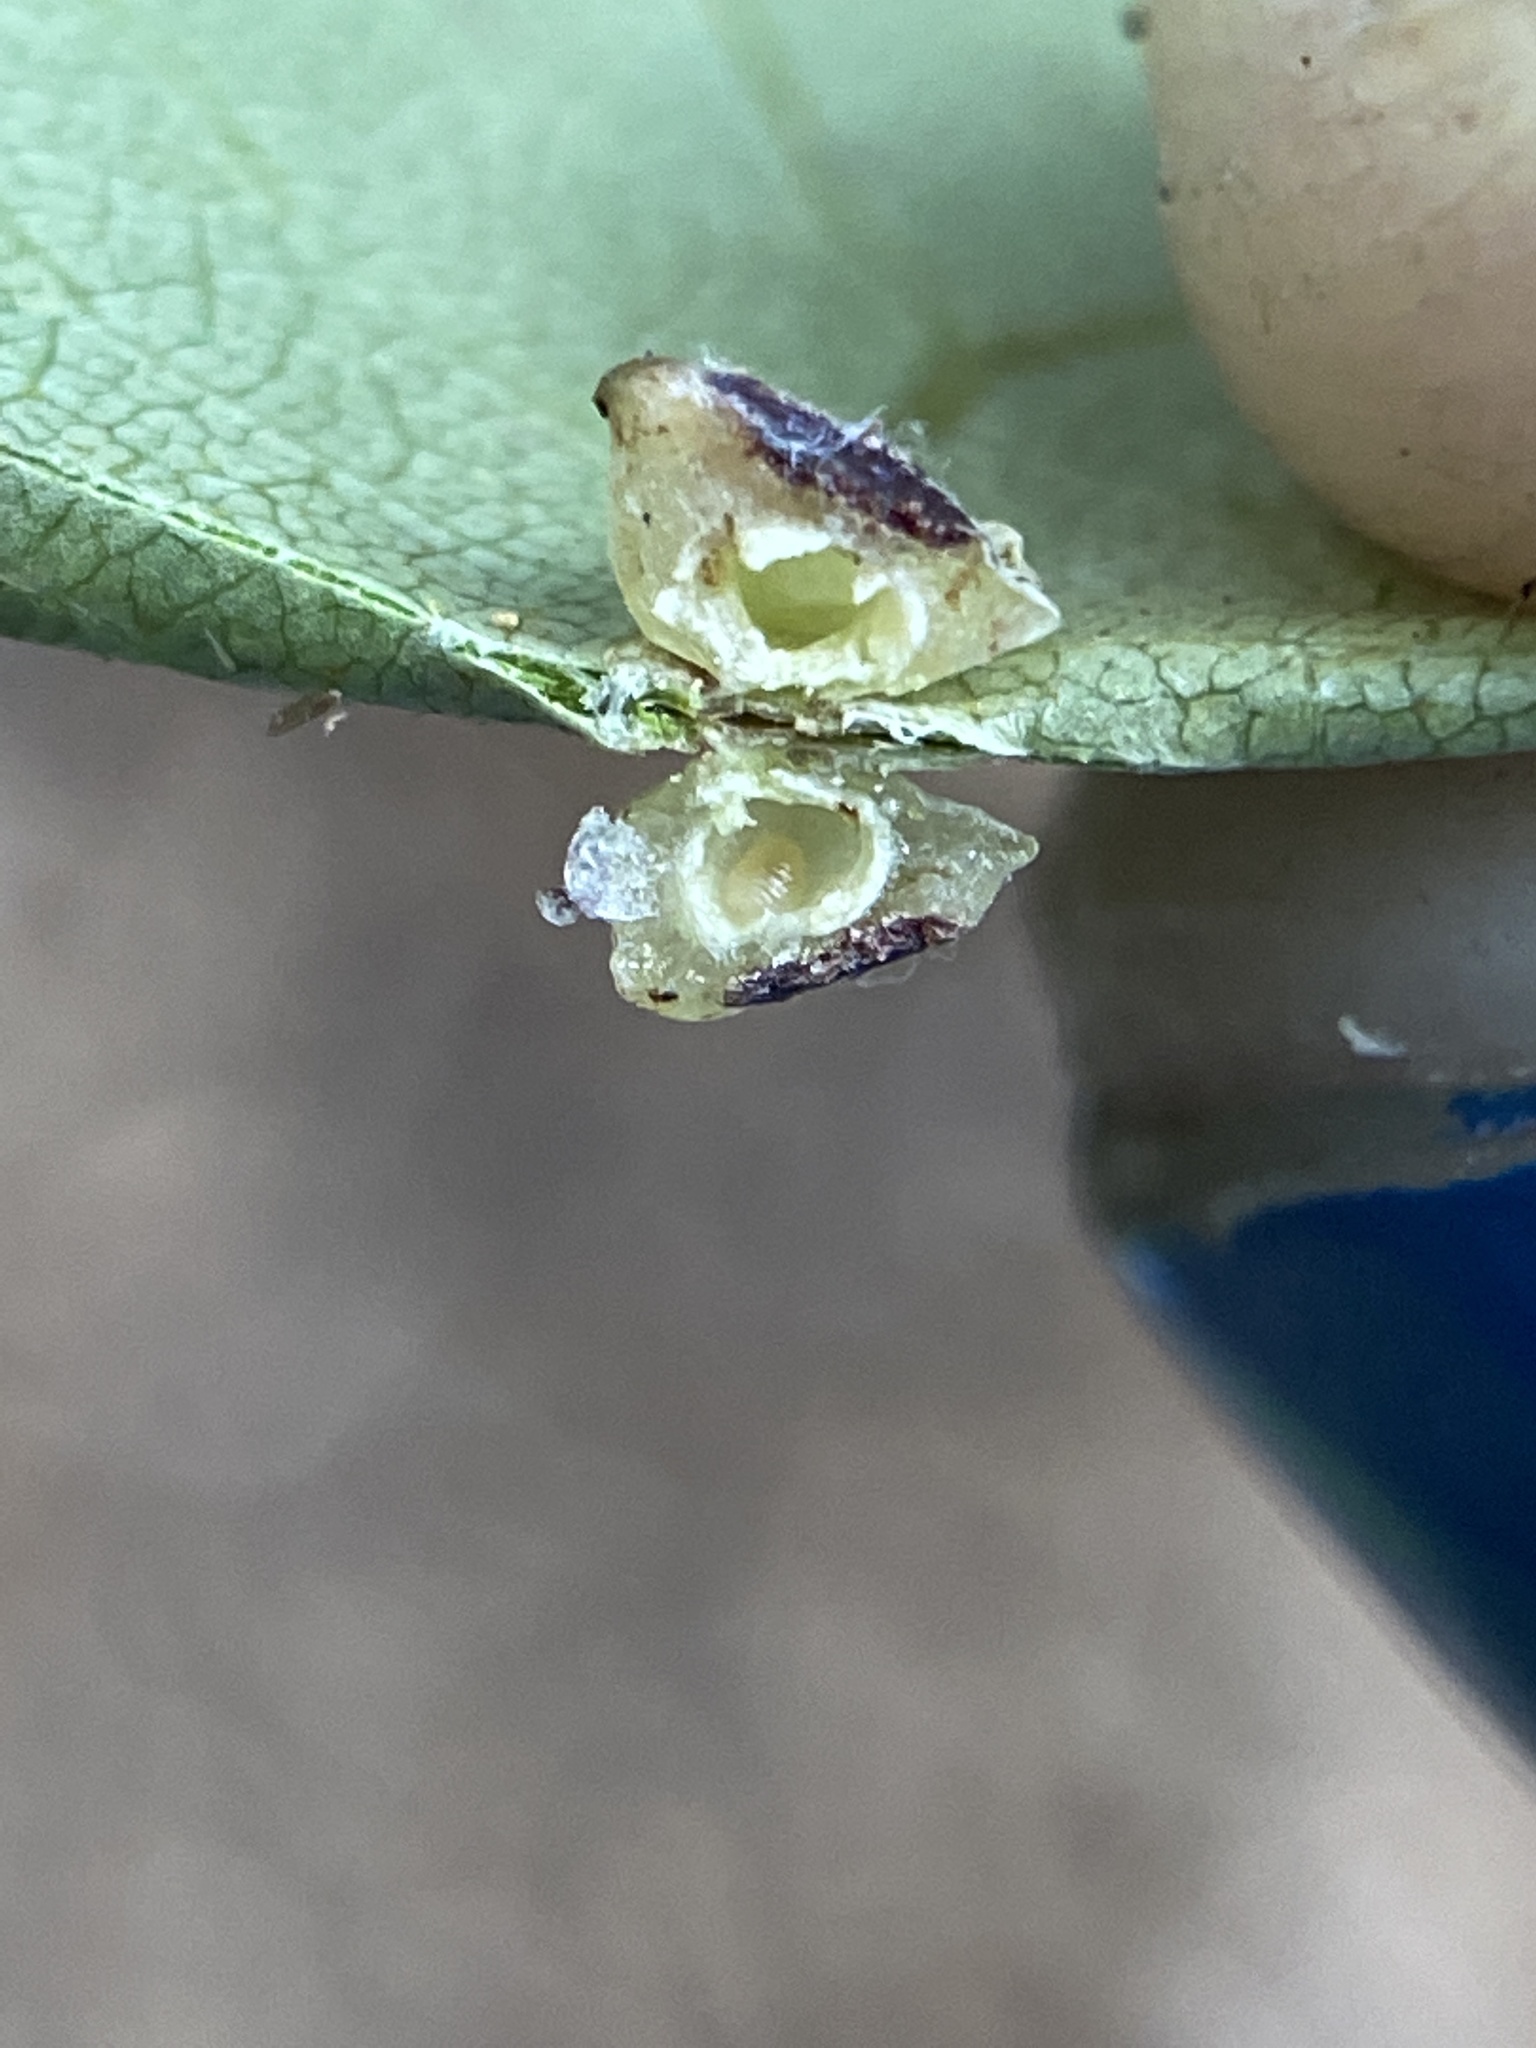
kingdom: Animalia
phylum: Arthropoda
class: Insecta
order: Diptera
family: Cecidomyiidae
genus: Caryomyia
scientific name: Caryomyia sanguinolenta
